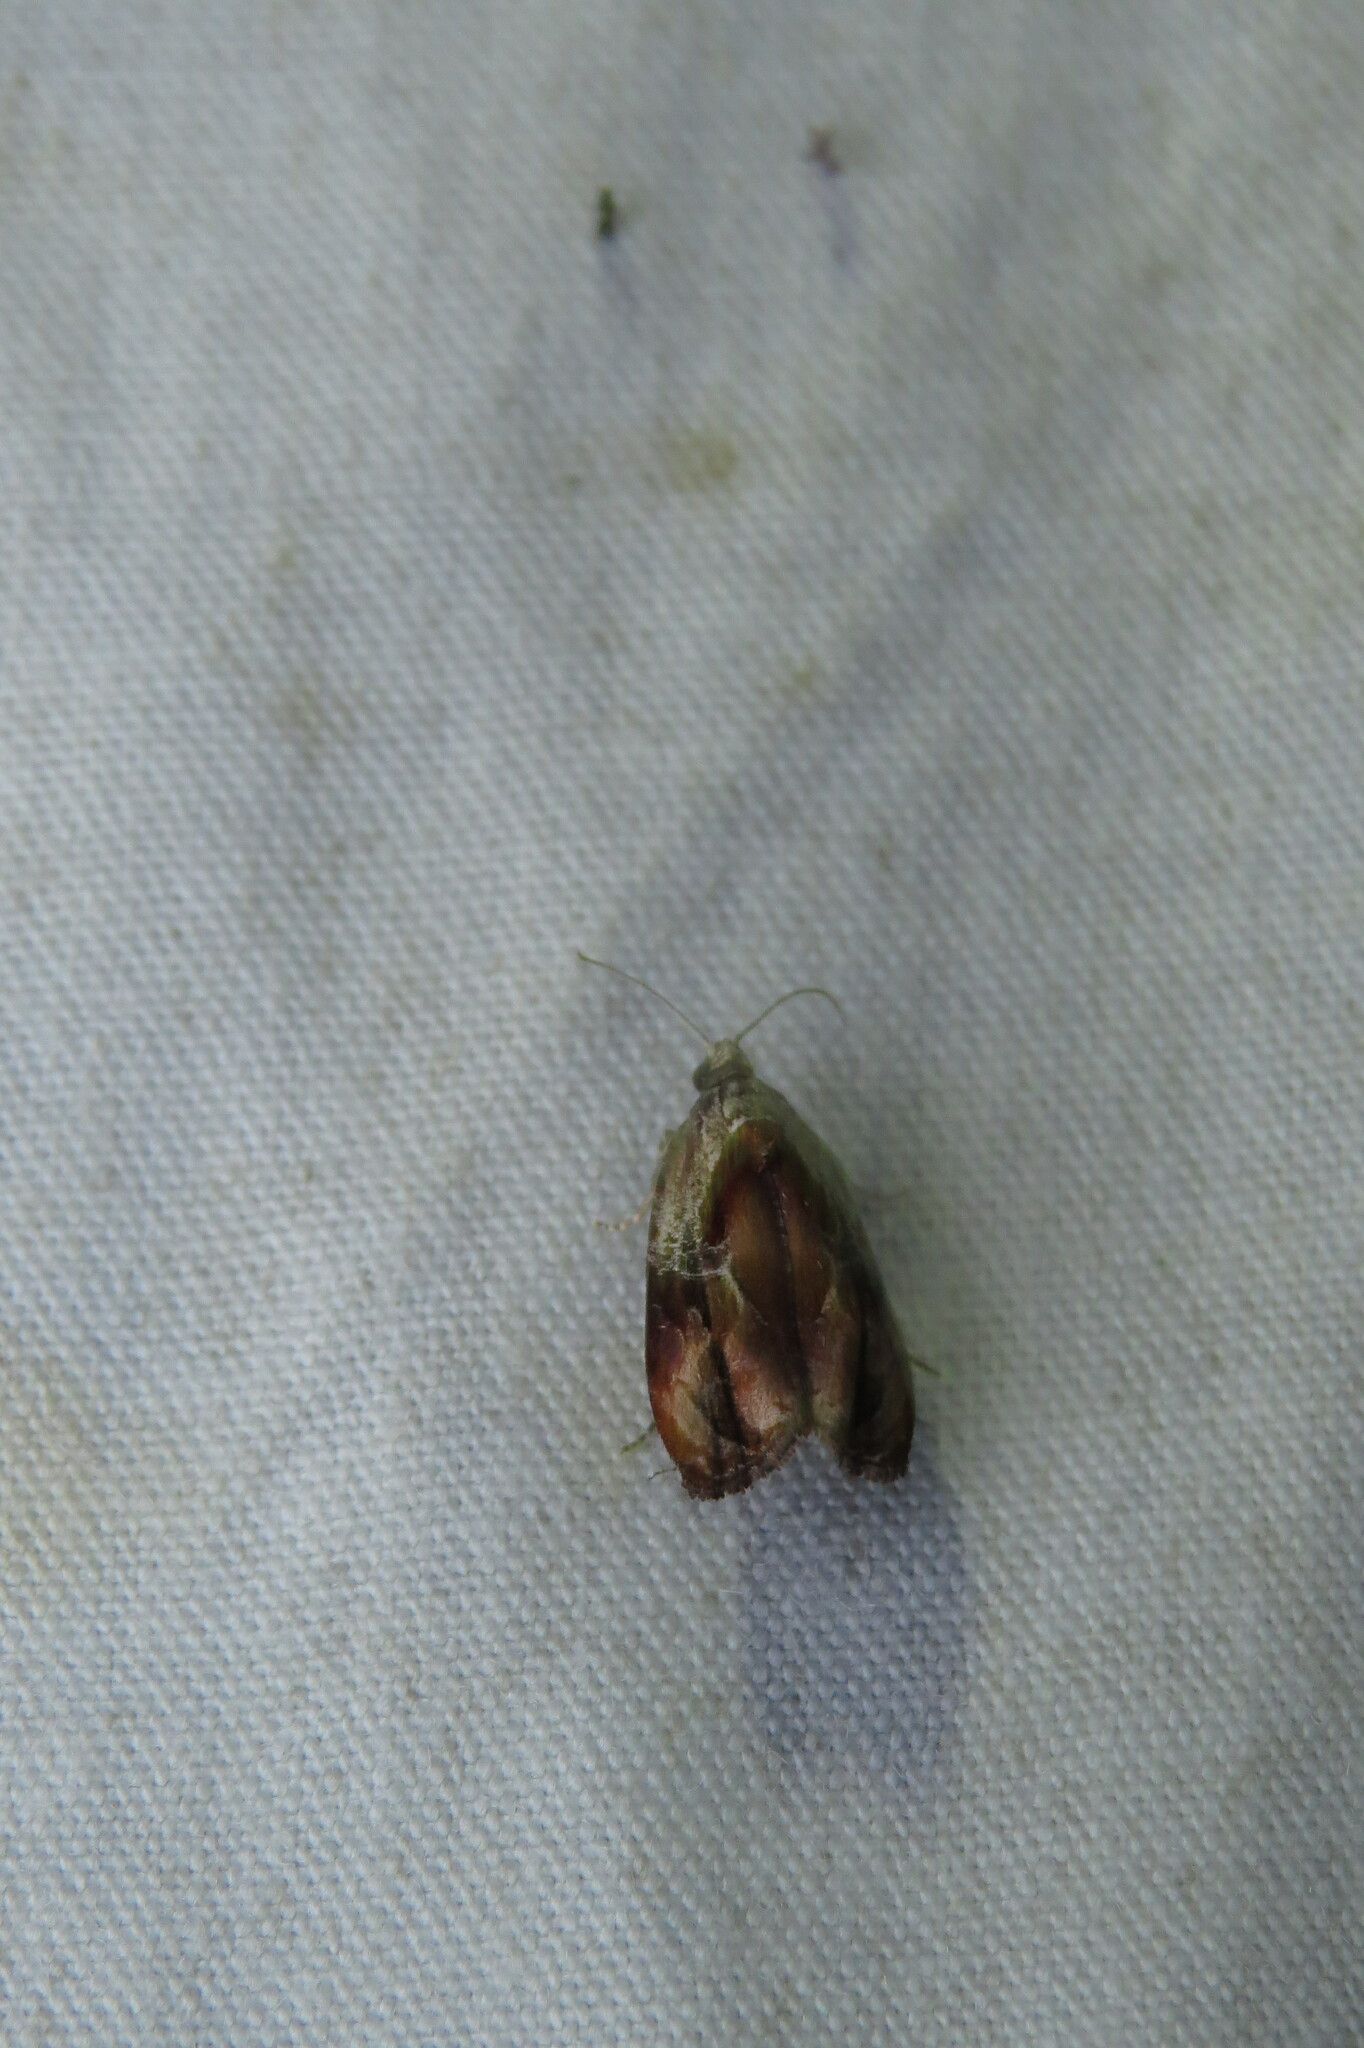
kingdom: Animalia
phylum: Arthropoda
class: Insecta
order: Lepidoptera
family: Tortricidae
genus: Zomaria
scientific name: Zomaria interruptolineana
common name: Broken-lined zomaria moth
